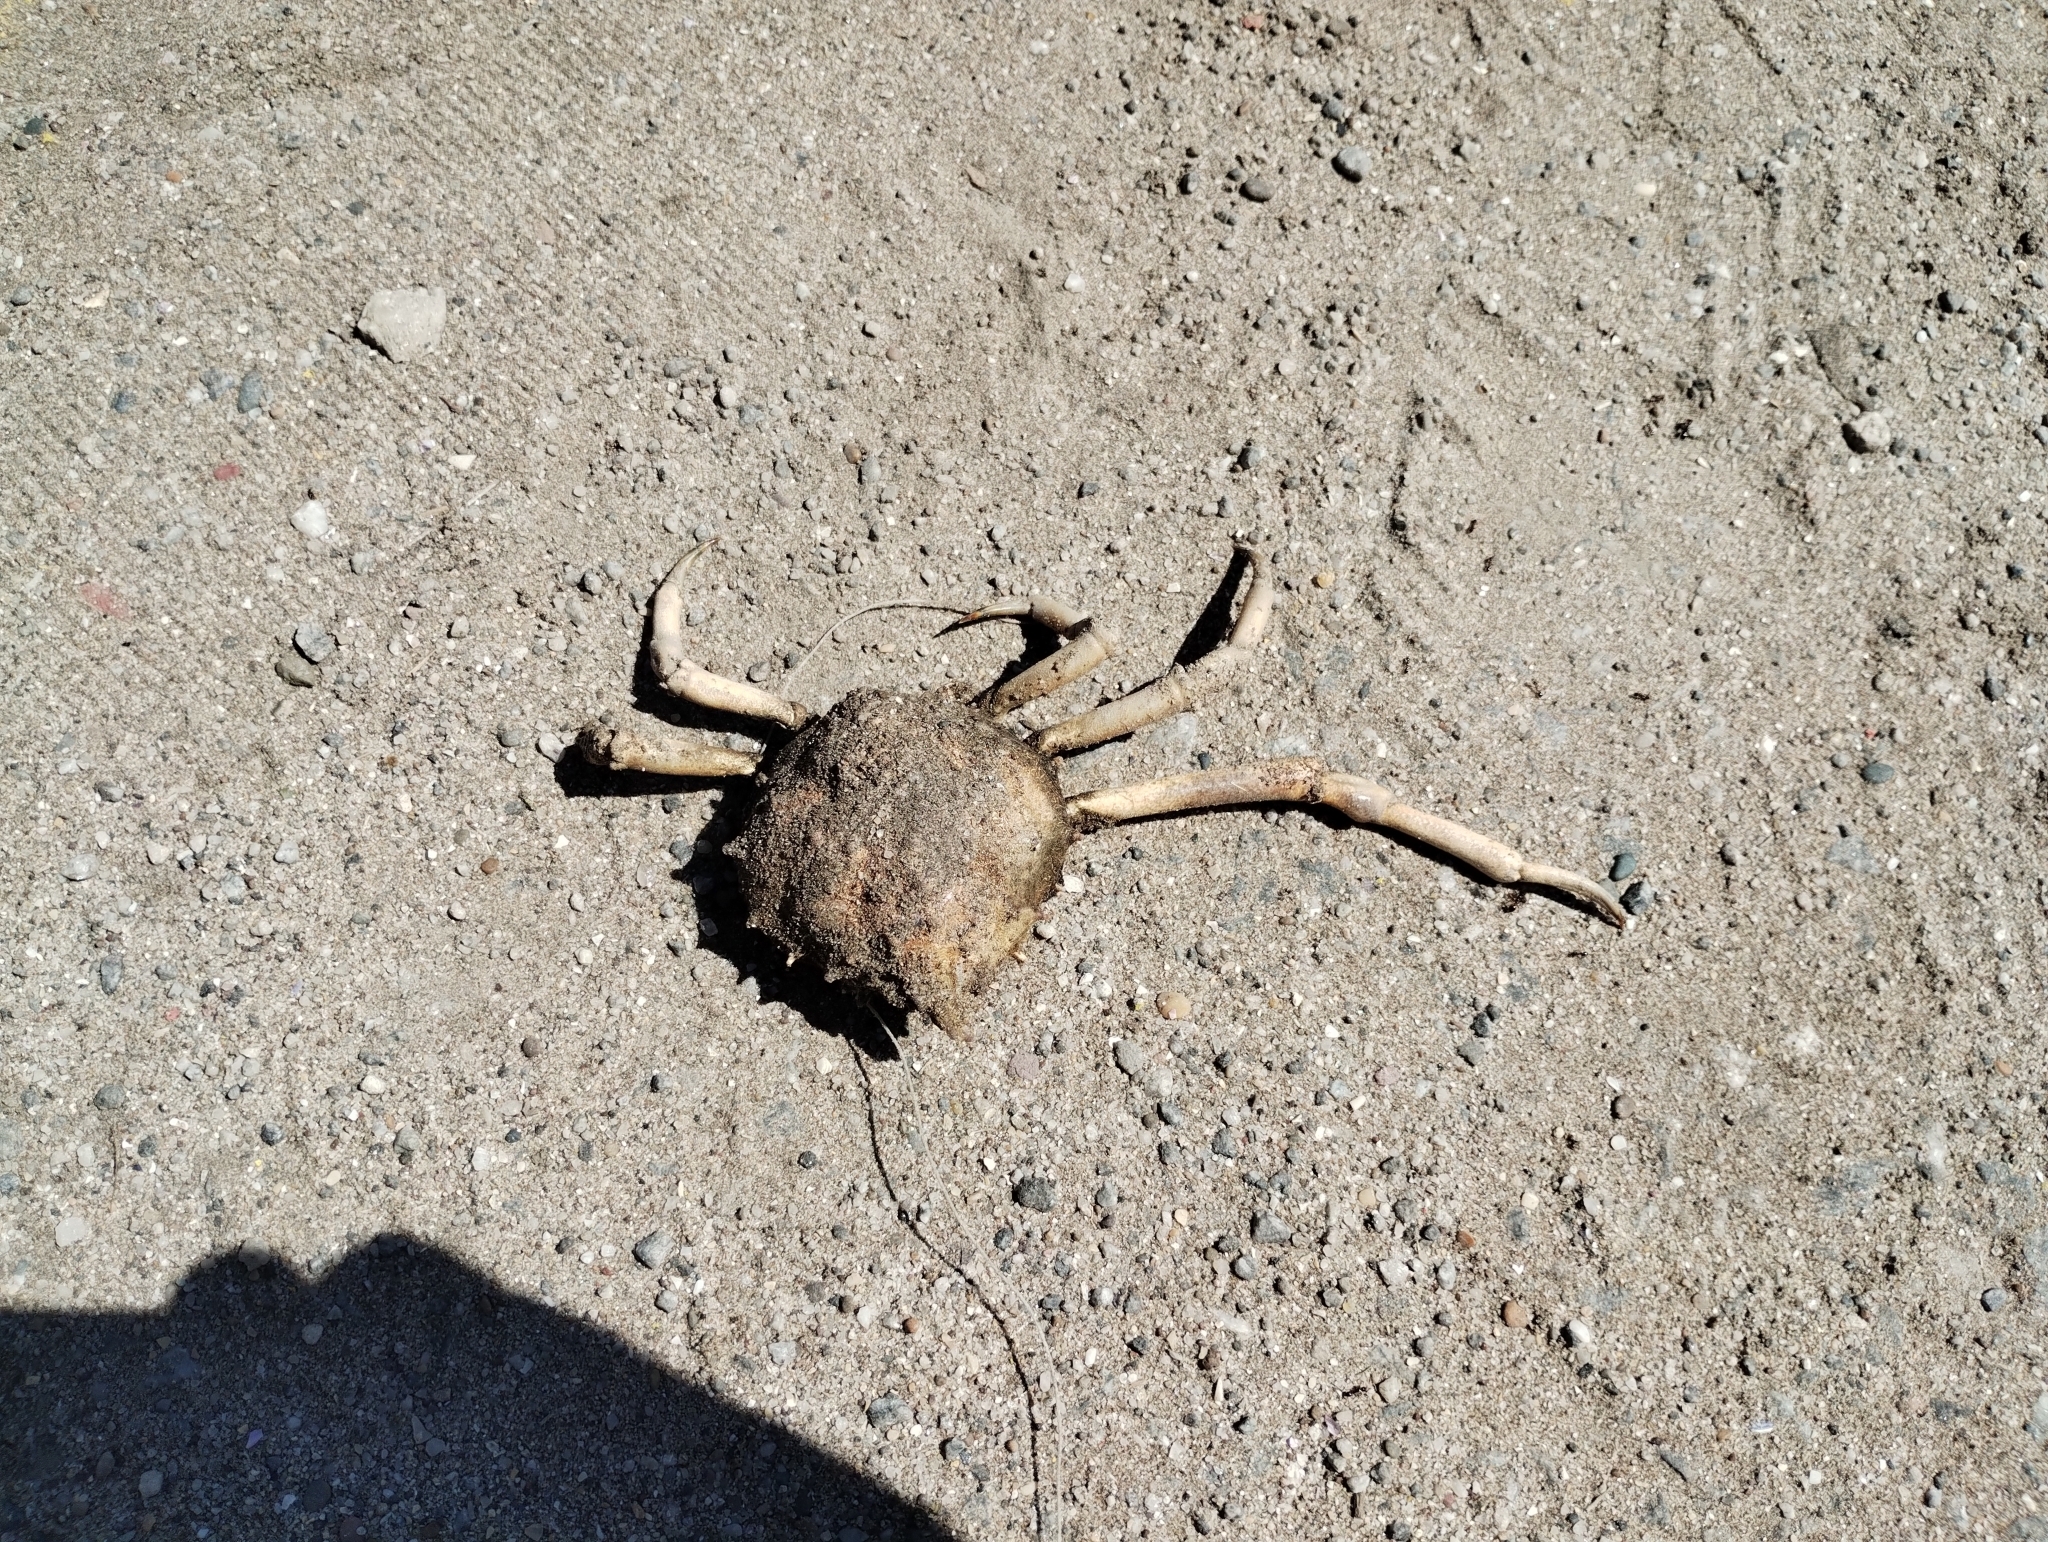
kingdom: Animalia
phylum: Arthropoda
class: Malacostraca
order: Decapoda
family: Epialtidae
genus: Libinia
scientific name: Libinia spinosa
